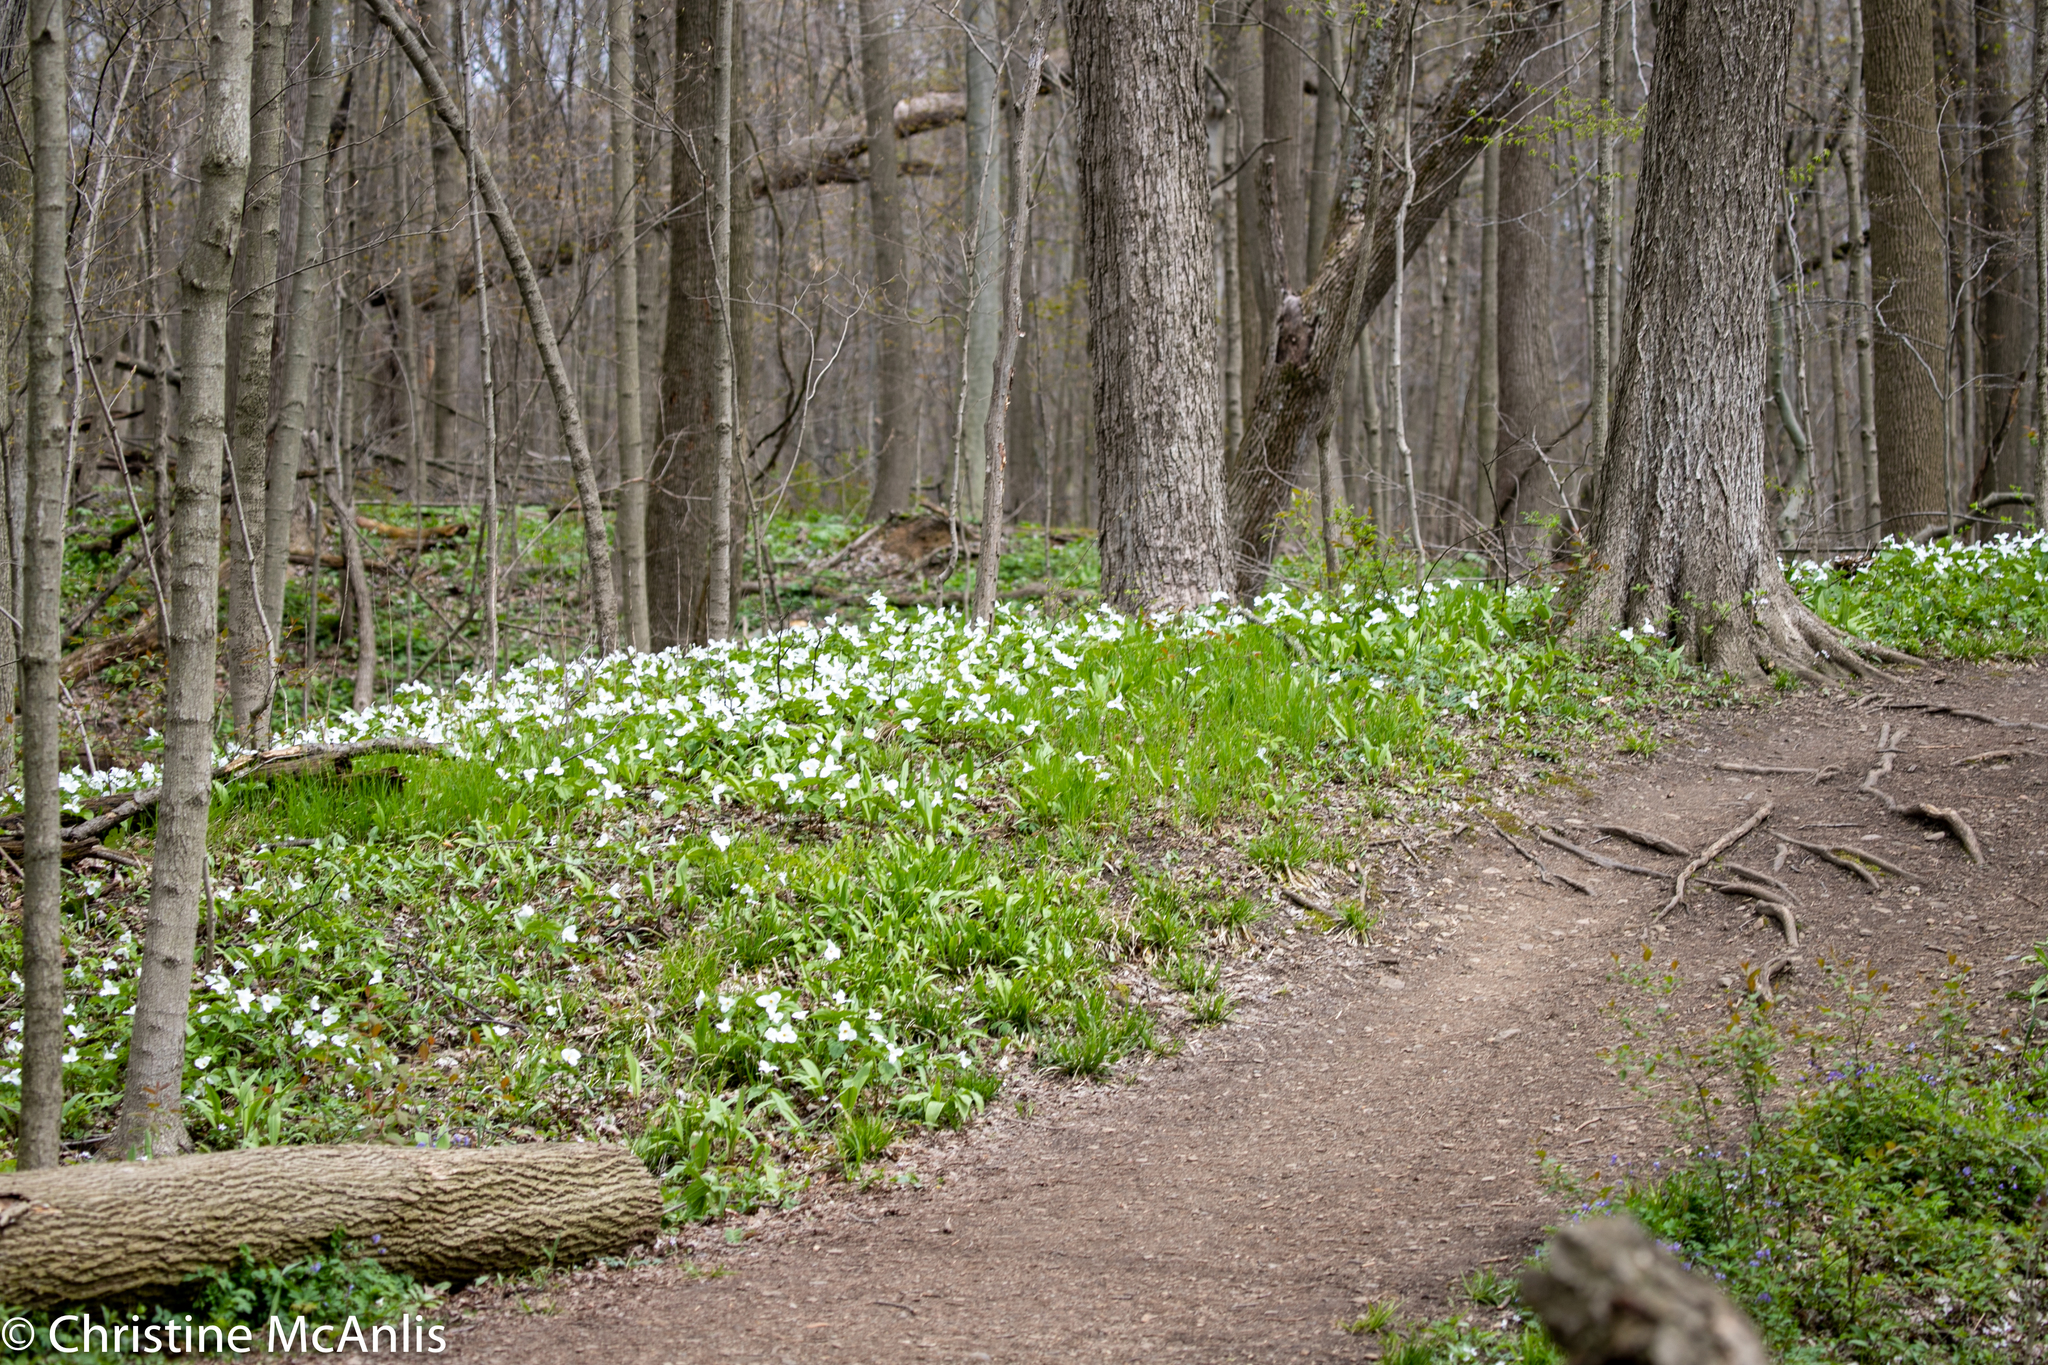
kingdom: Plantae
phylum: Tracheophyta
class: Liliopsida
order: Liliales
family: Melanthiaceae
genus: Trillium
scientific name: Trillium grandiflorum
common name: Great white trillium
